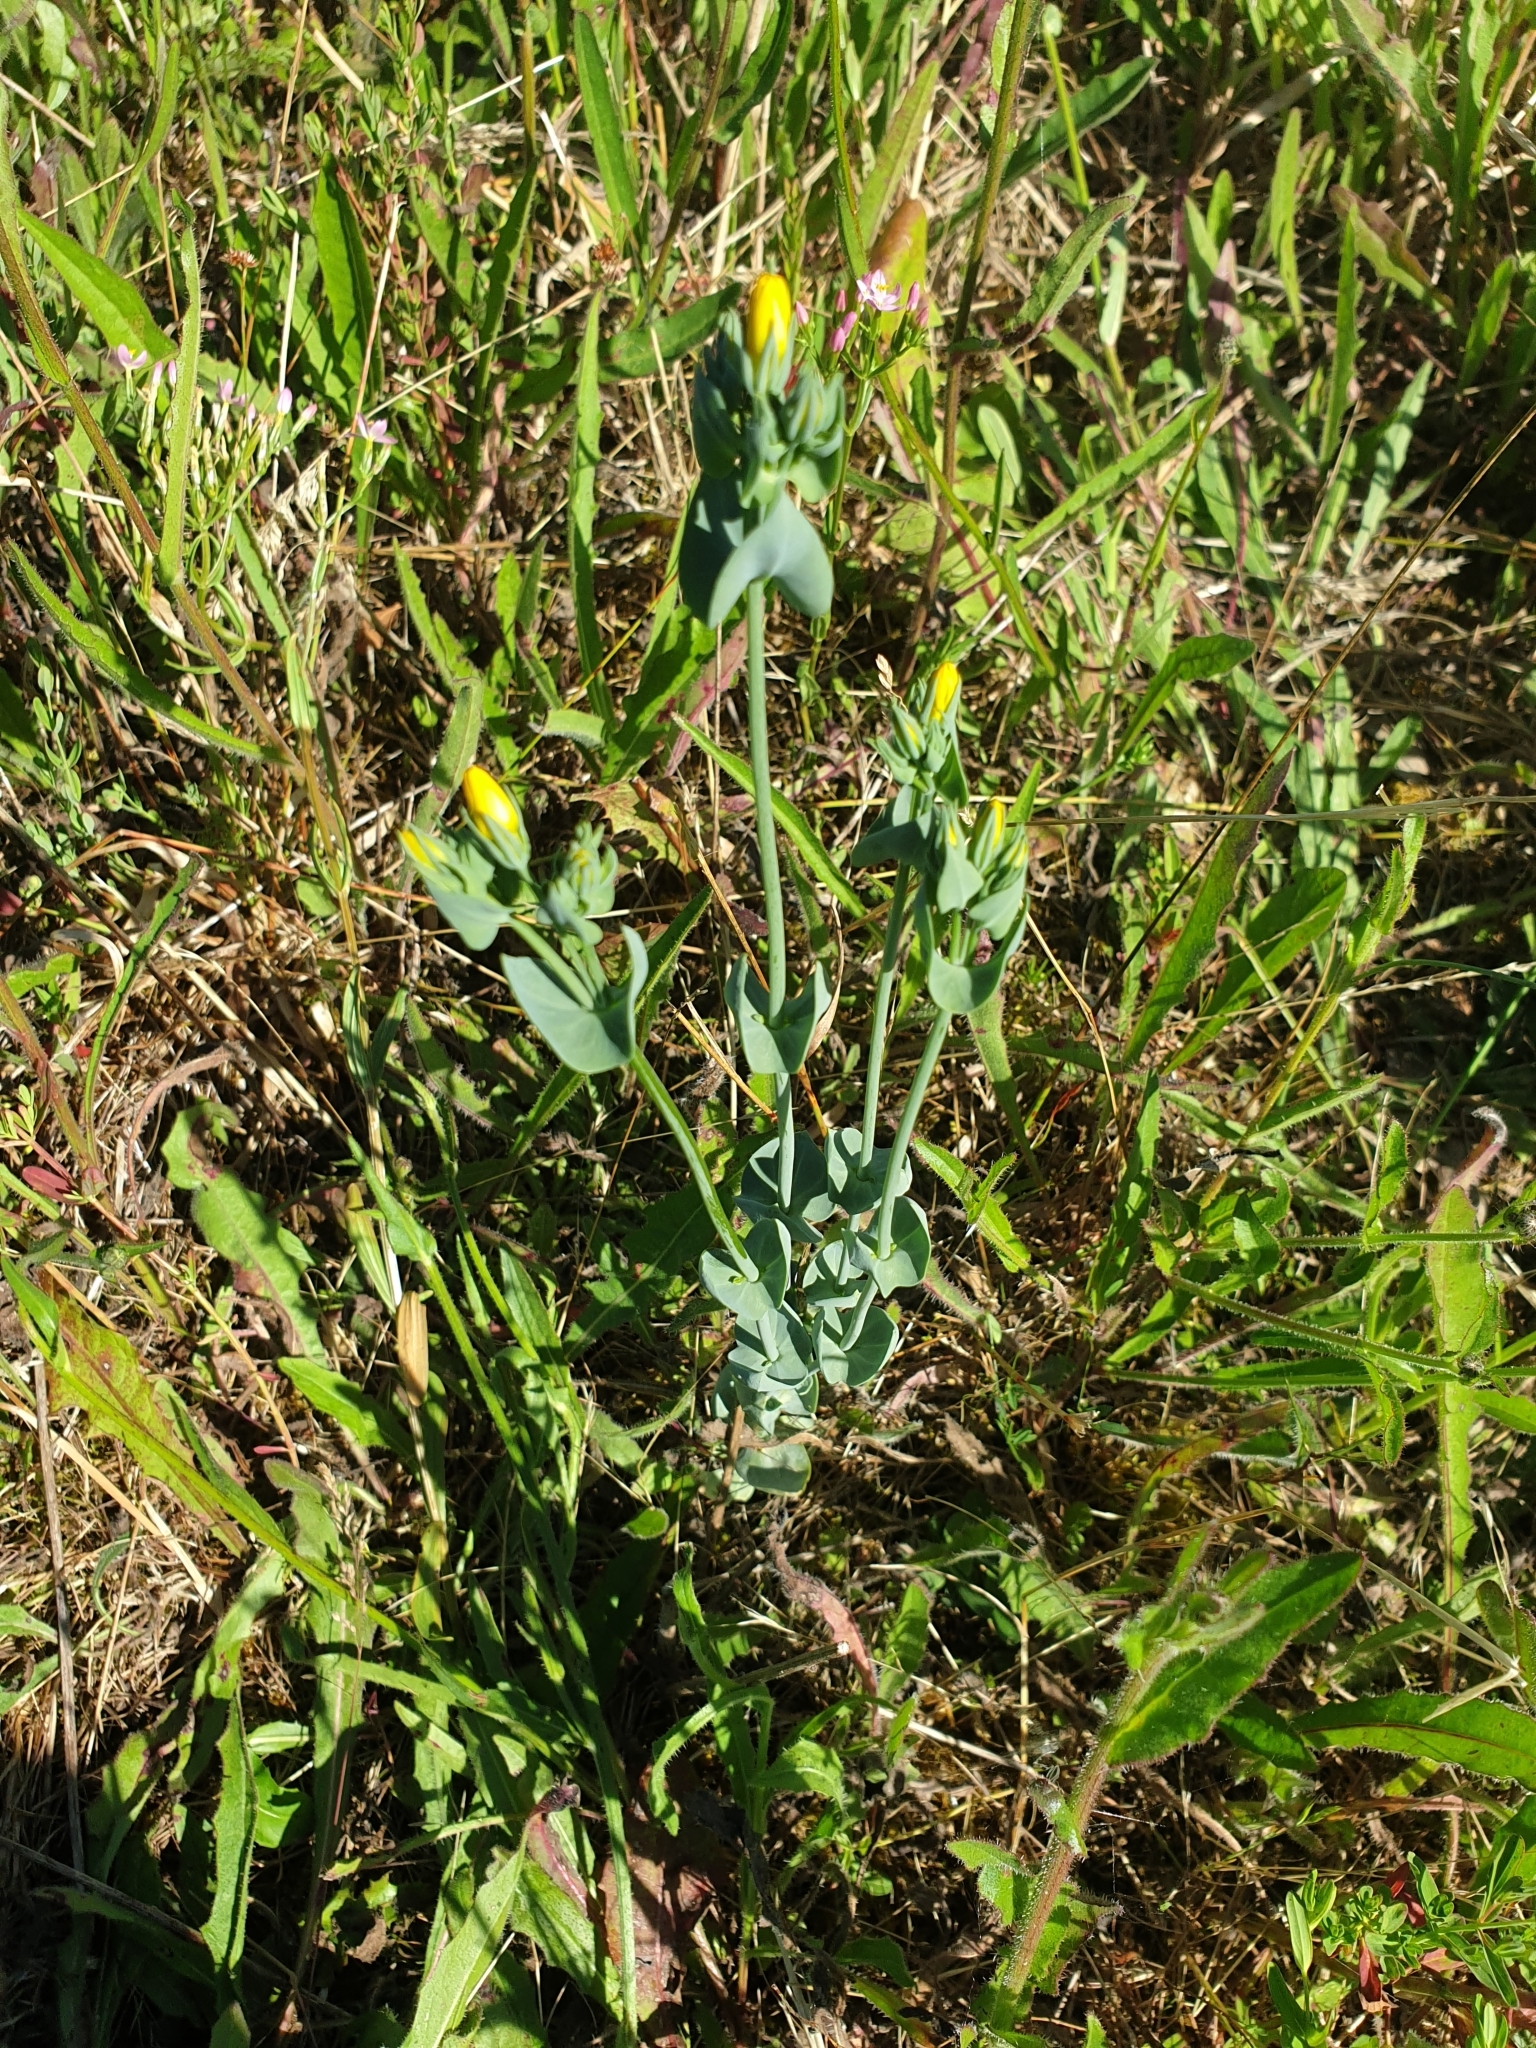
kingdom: Plantae
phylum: Tracheophyta
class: Magnoliopsida
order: Gentianales
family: Gentianaceae
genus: Blackstonia
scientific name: Blackstonia perfoliata
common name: Yellow-wort
